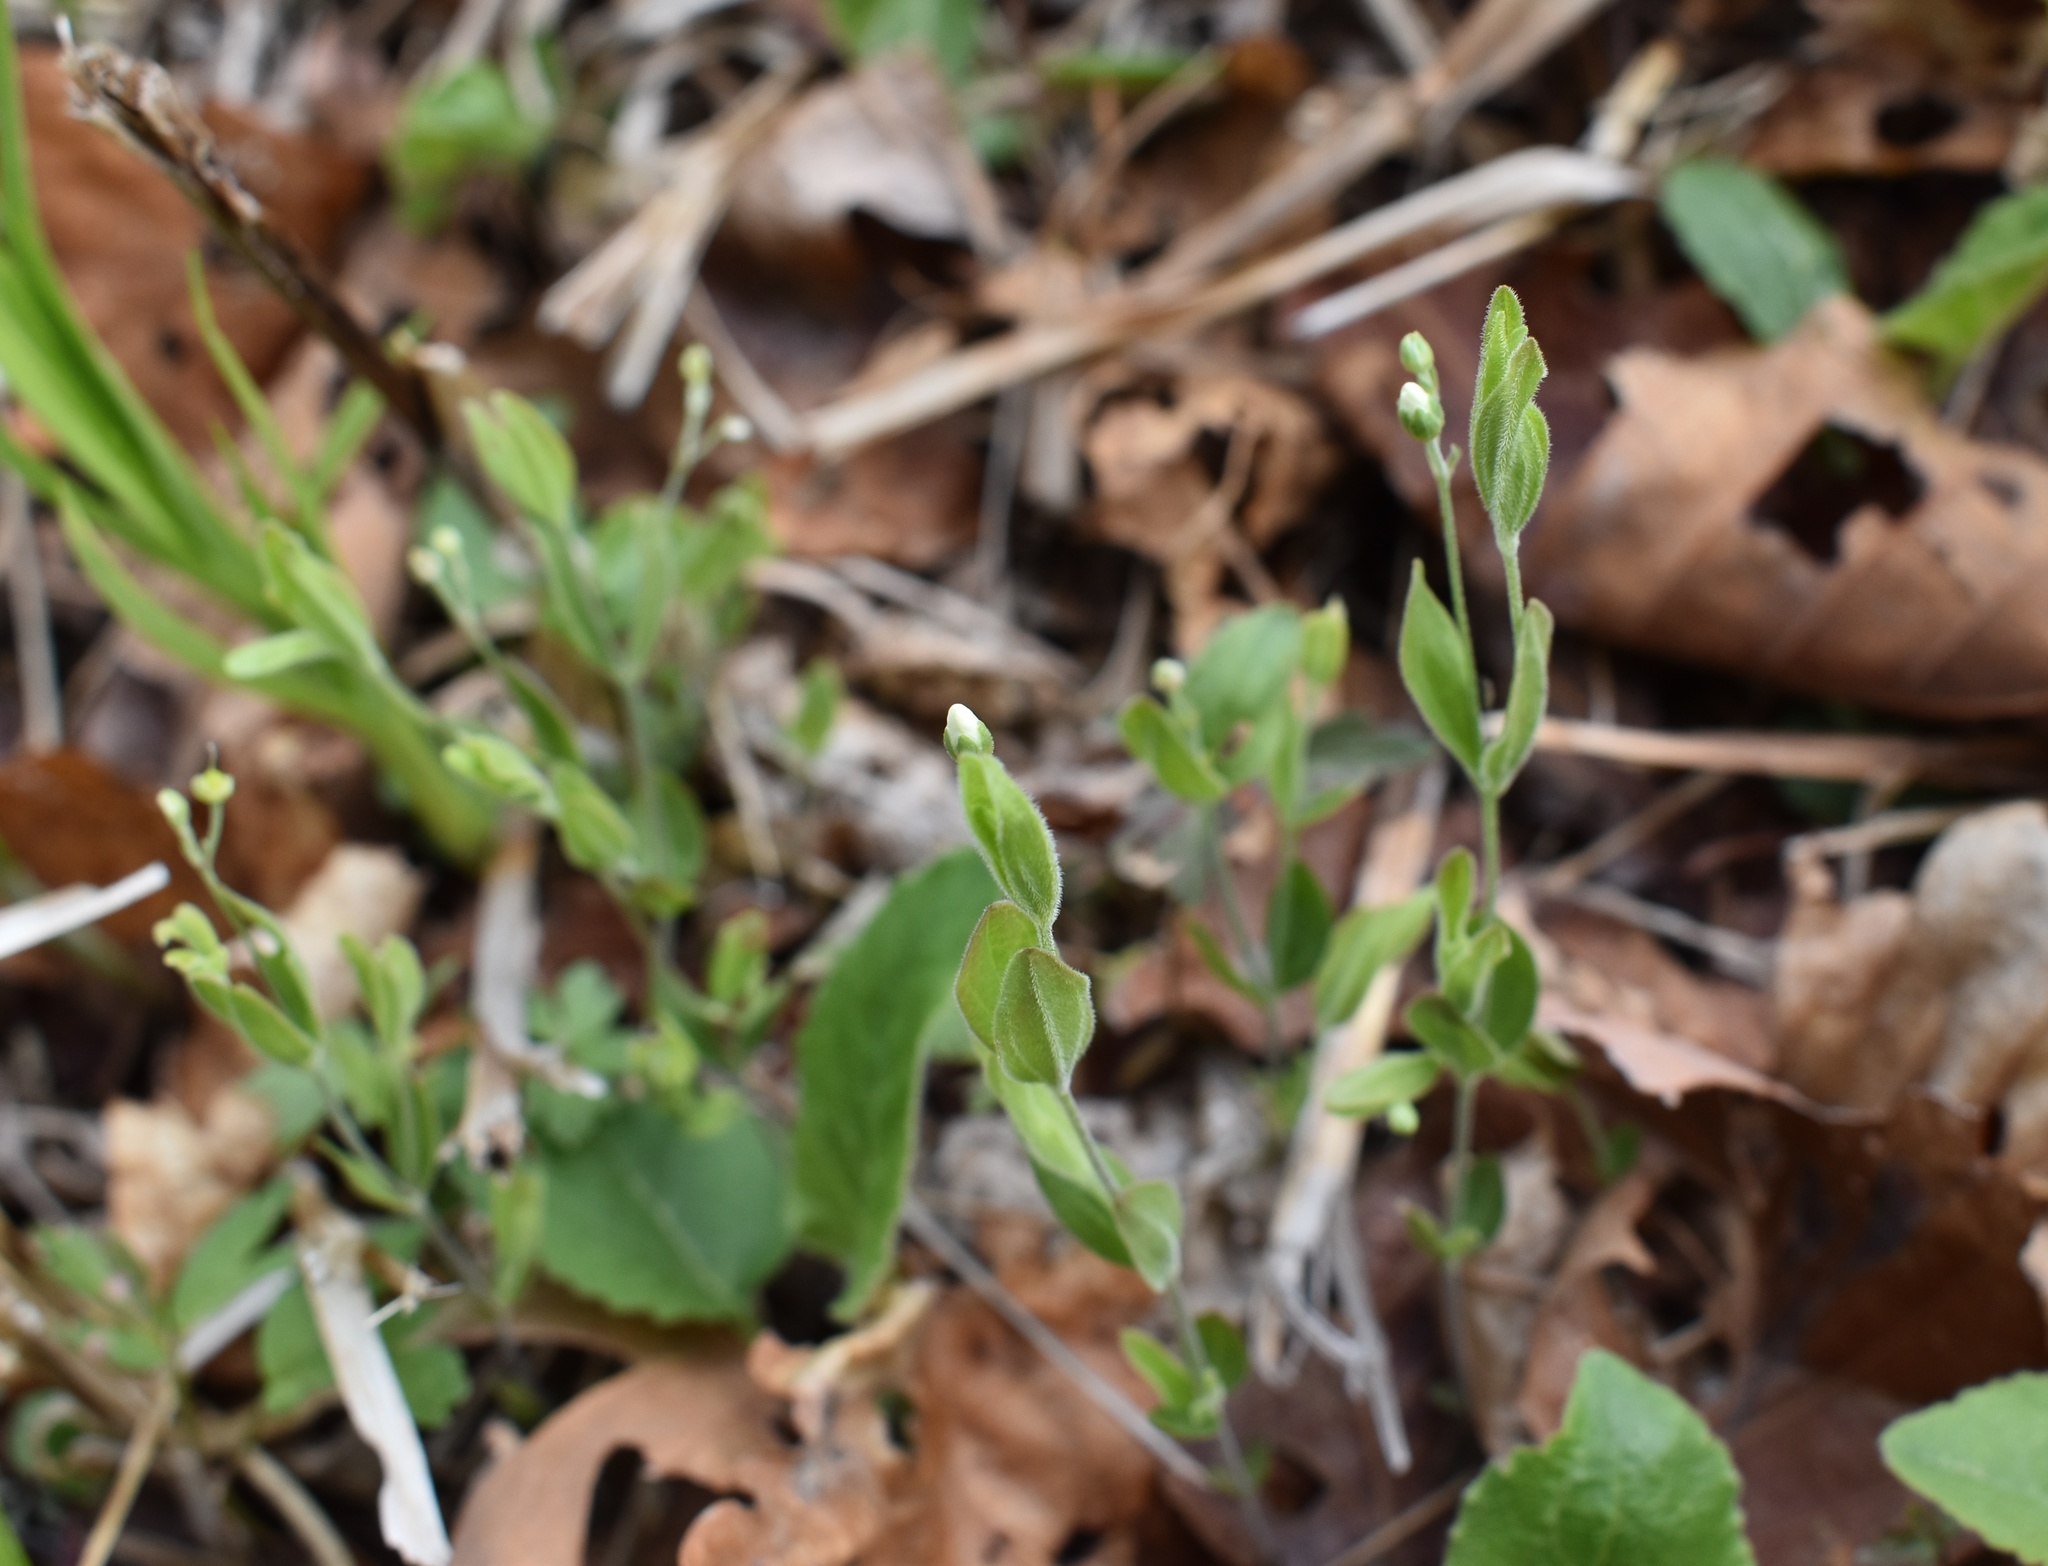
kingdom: Plantae
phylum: Tracheophyta
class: Magnoliopsida
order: Caryophyllales
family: Caryophyllaceae
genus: Moehringia
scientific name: Moehringia lateriflora
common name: Blunt-leaved sandwort
